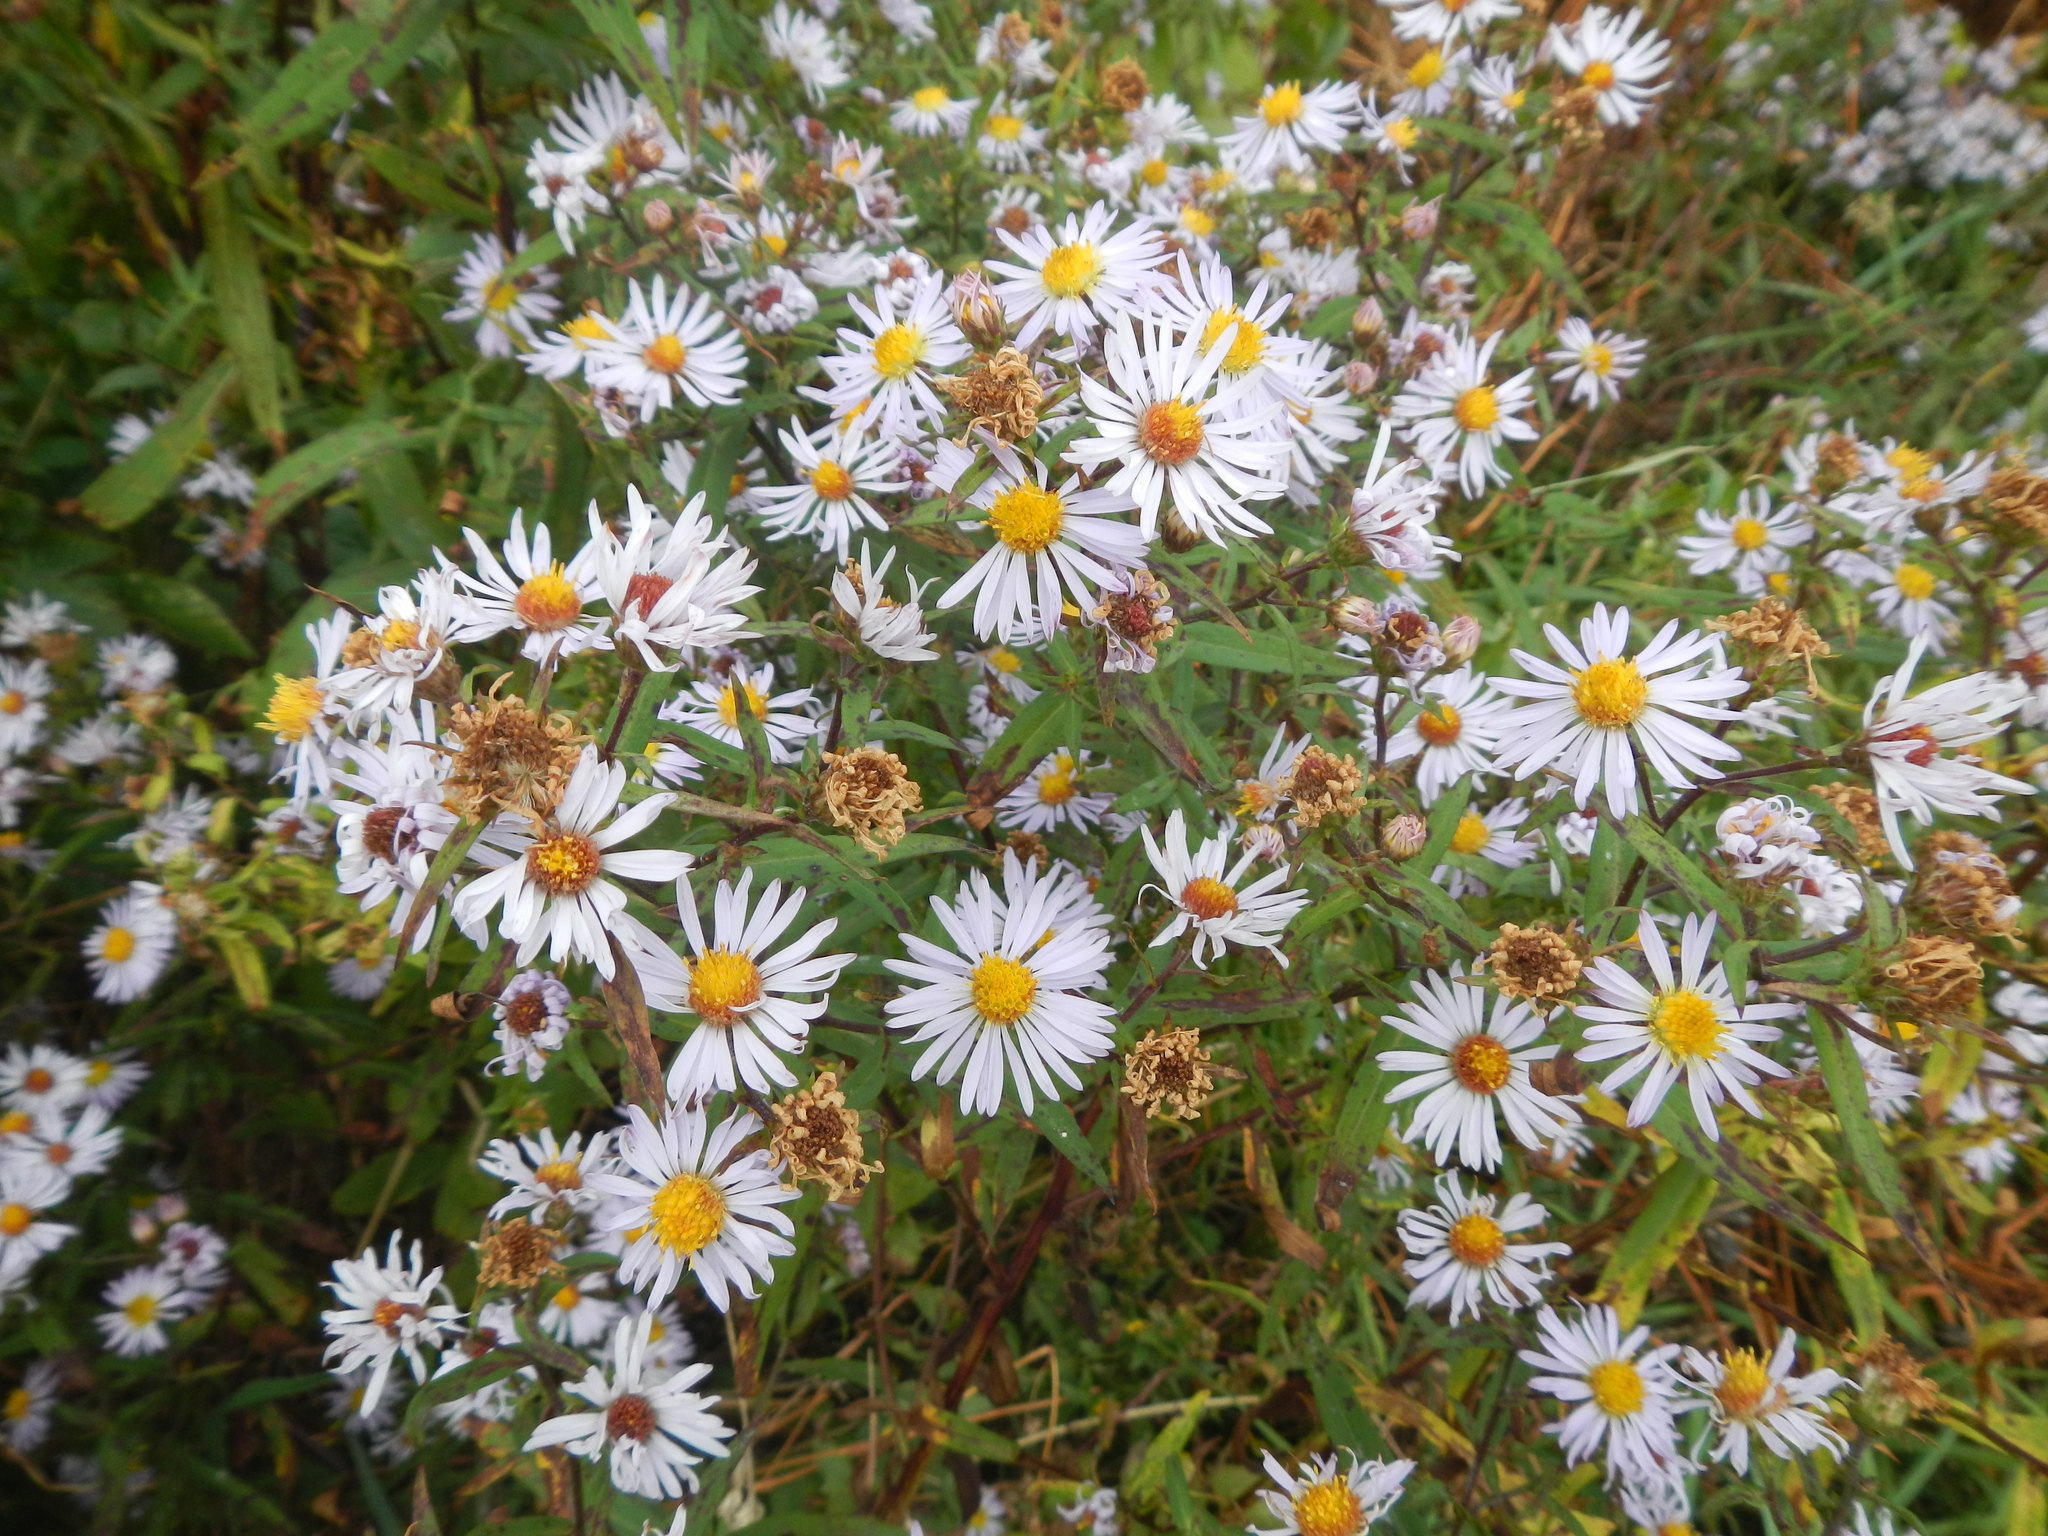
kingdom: Plantae
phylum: Tracheophyta
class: Magnoliopsida
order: Asterales
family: Asteraceae
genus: Symphyotrichum
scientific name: Symphyotrichum novi-belgii
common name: Michaelmas daisy
